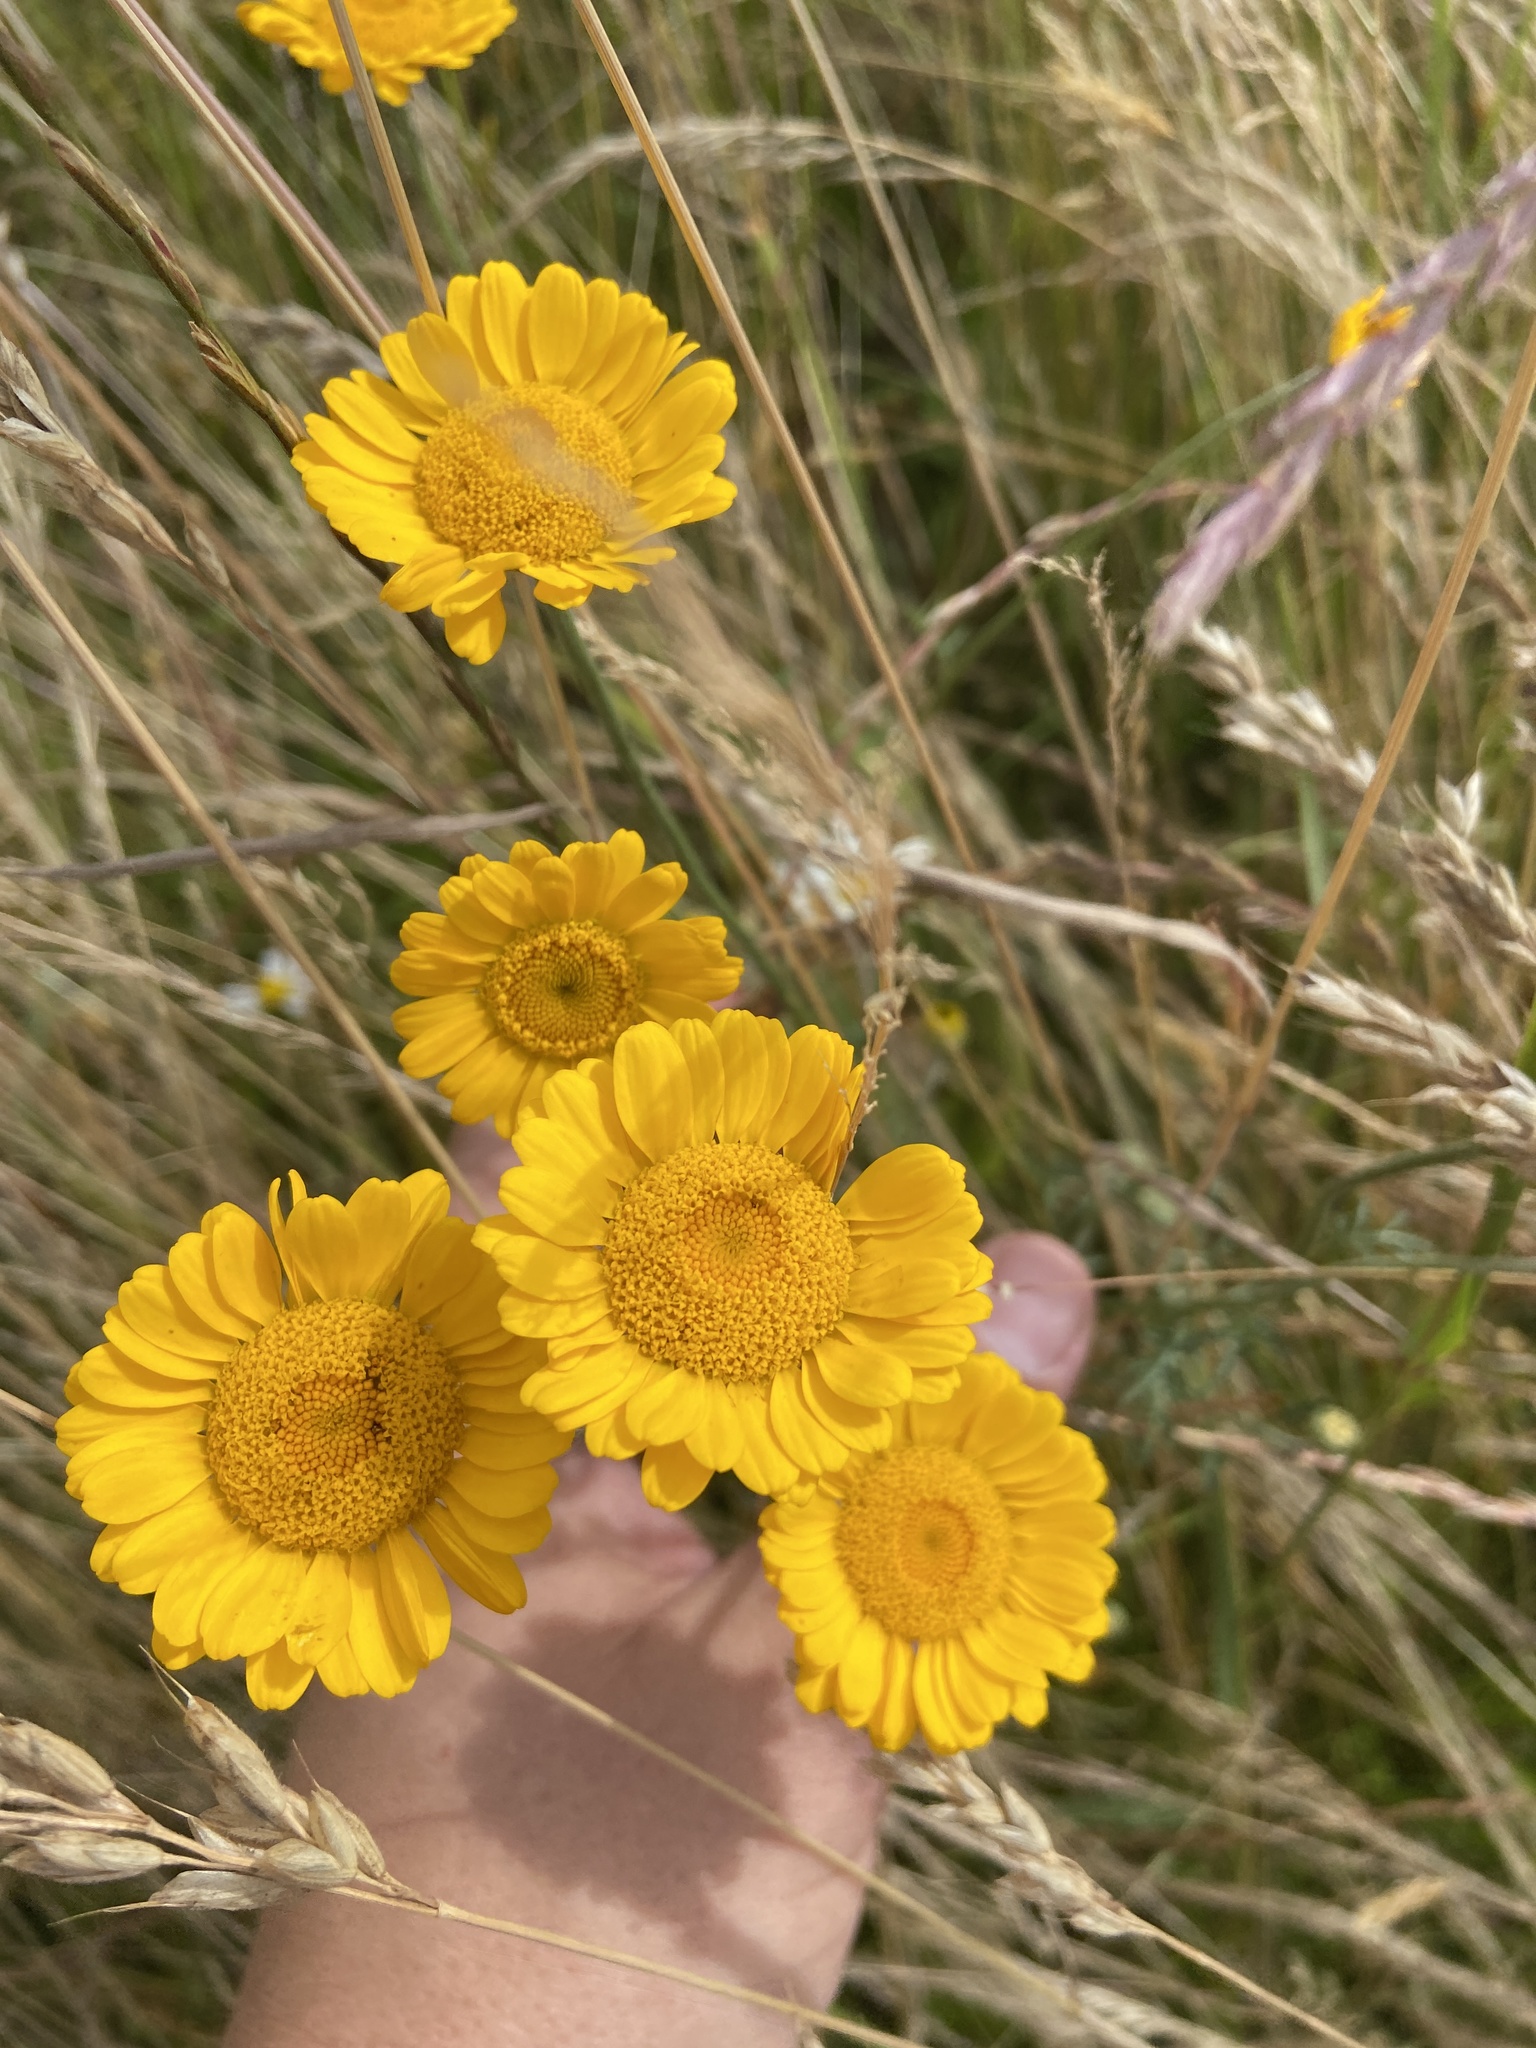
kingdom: Plantae
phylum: Tracheophyta
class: Magnoliopsida
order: Asterales
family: Asteraceae
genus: Cota
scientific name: Cota tinctoria
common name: Golden chamomile
